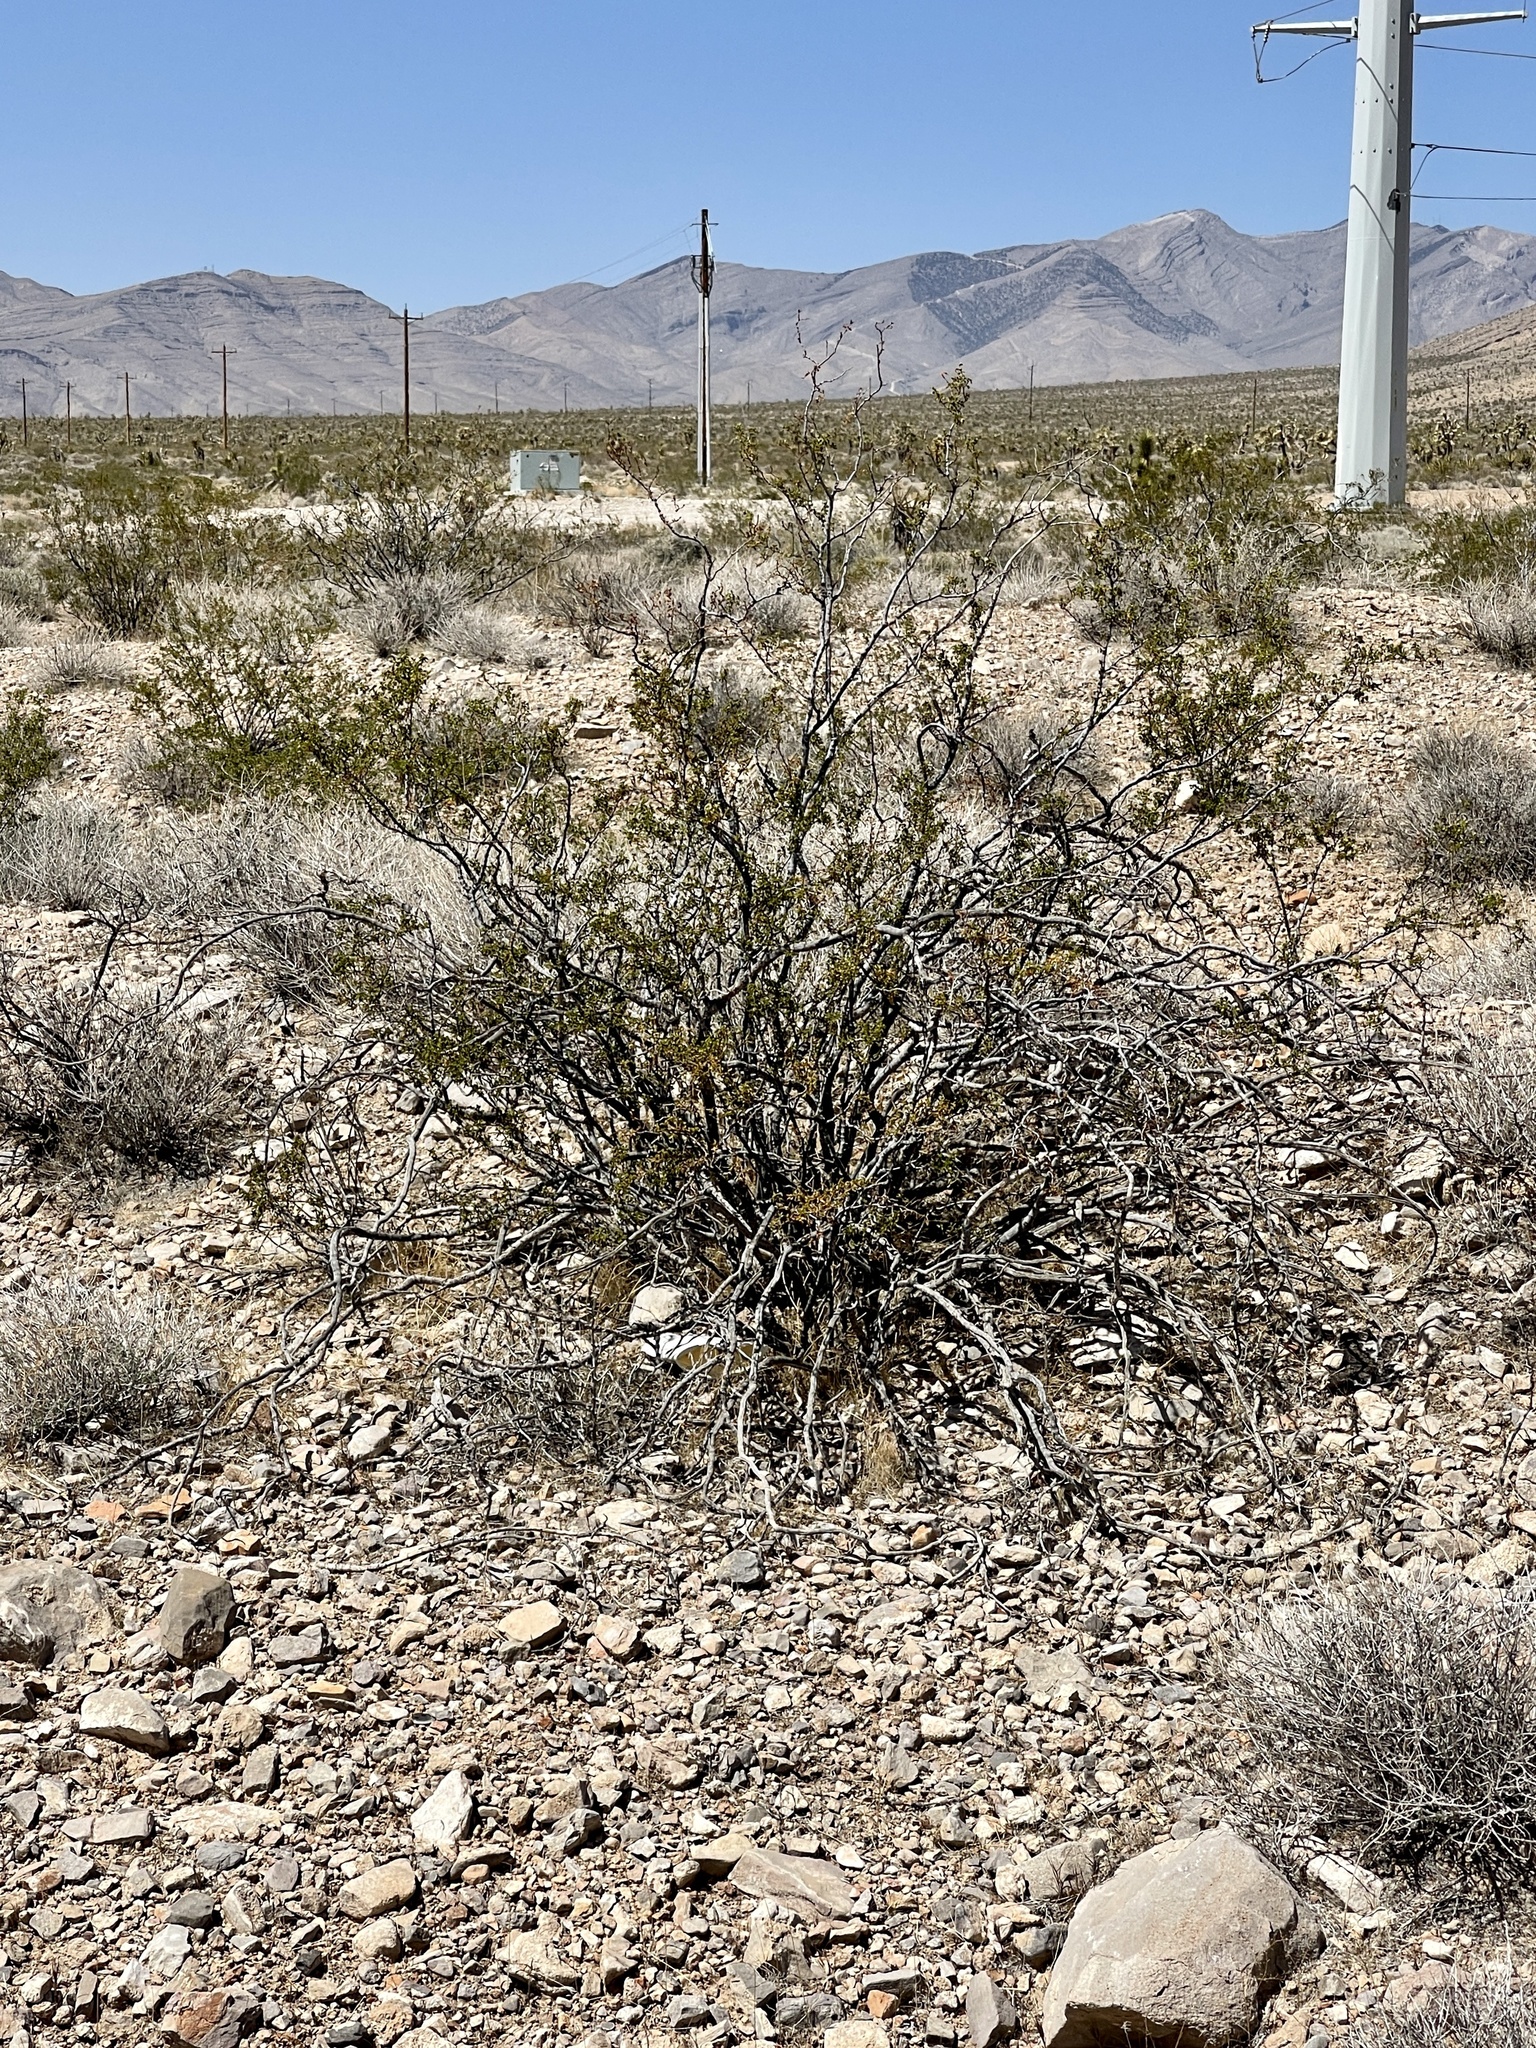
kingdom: Plantae
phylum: Tracheophyta
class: Magnoliopsida
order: Zygophyllales
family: Zygophyllaceae
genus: Larrea
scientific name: Larrea tridentata
